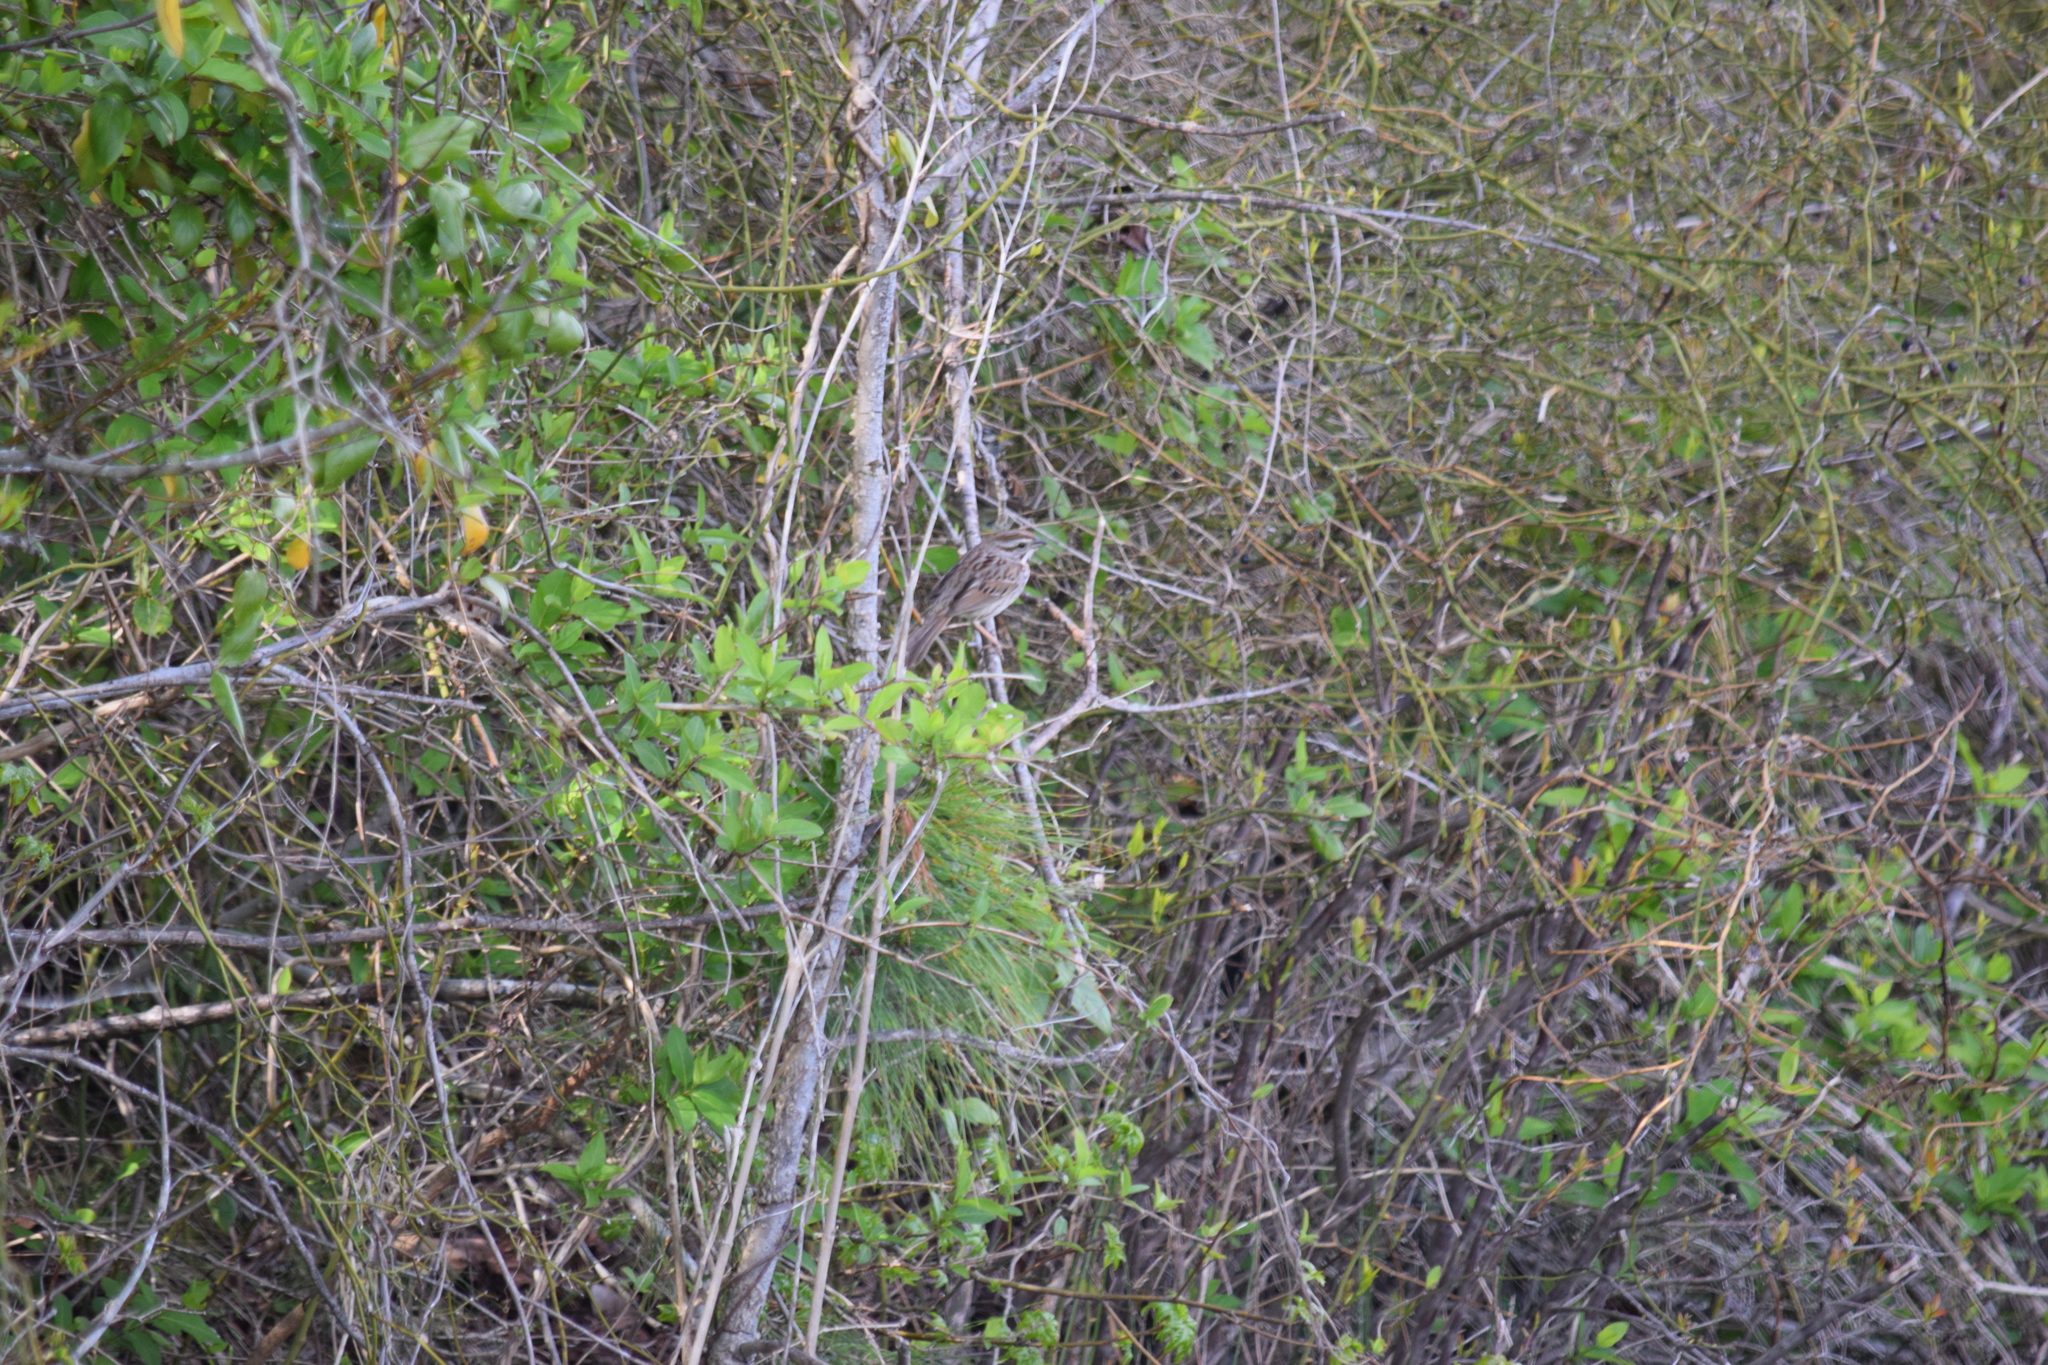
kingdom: Animalia
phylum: Chordata
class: Aves
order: Passeriformes
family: Passerellidae
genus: Melospiza
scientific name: Melospiza melodia
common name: Song sparrow
